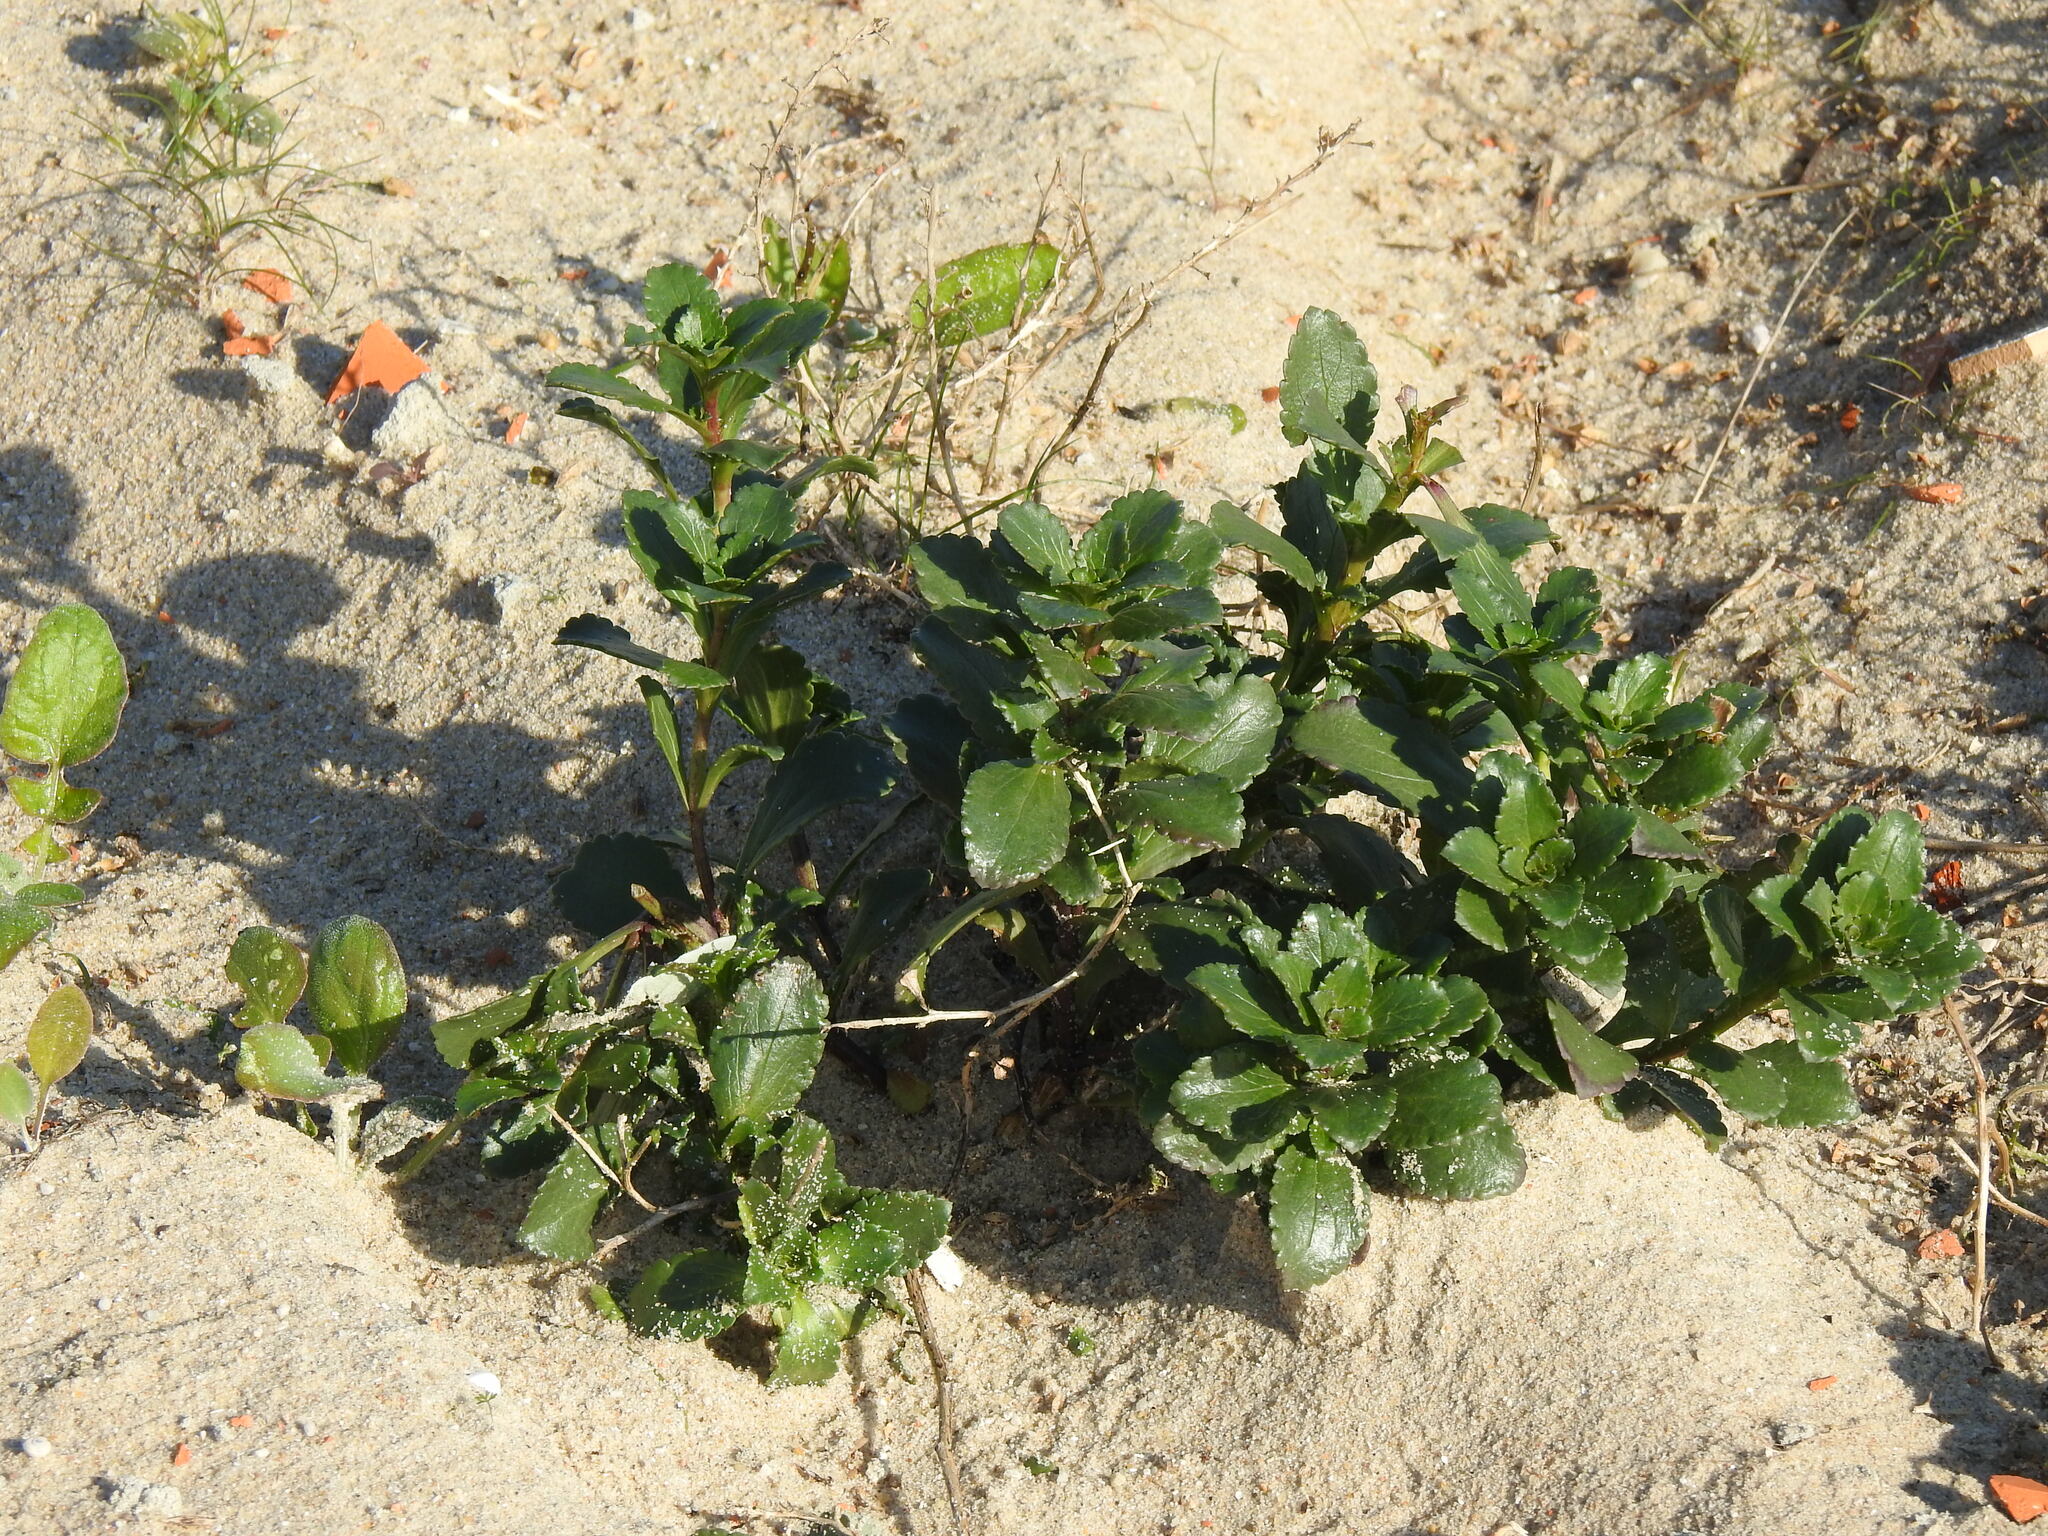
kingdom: Plantae
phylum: Tracheophyta
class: Magnoliopsida
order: Lamiales
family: Scrophulariaceae
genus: Scrophularia
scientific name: Scrophularia frutescens
